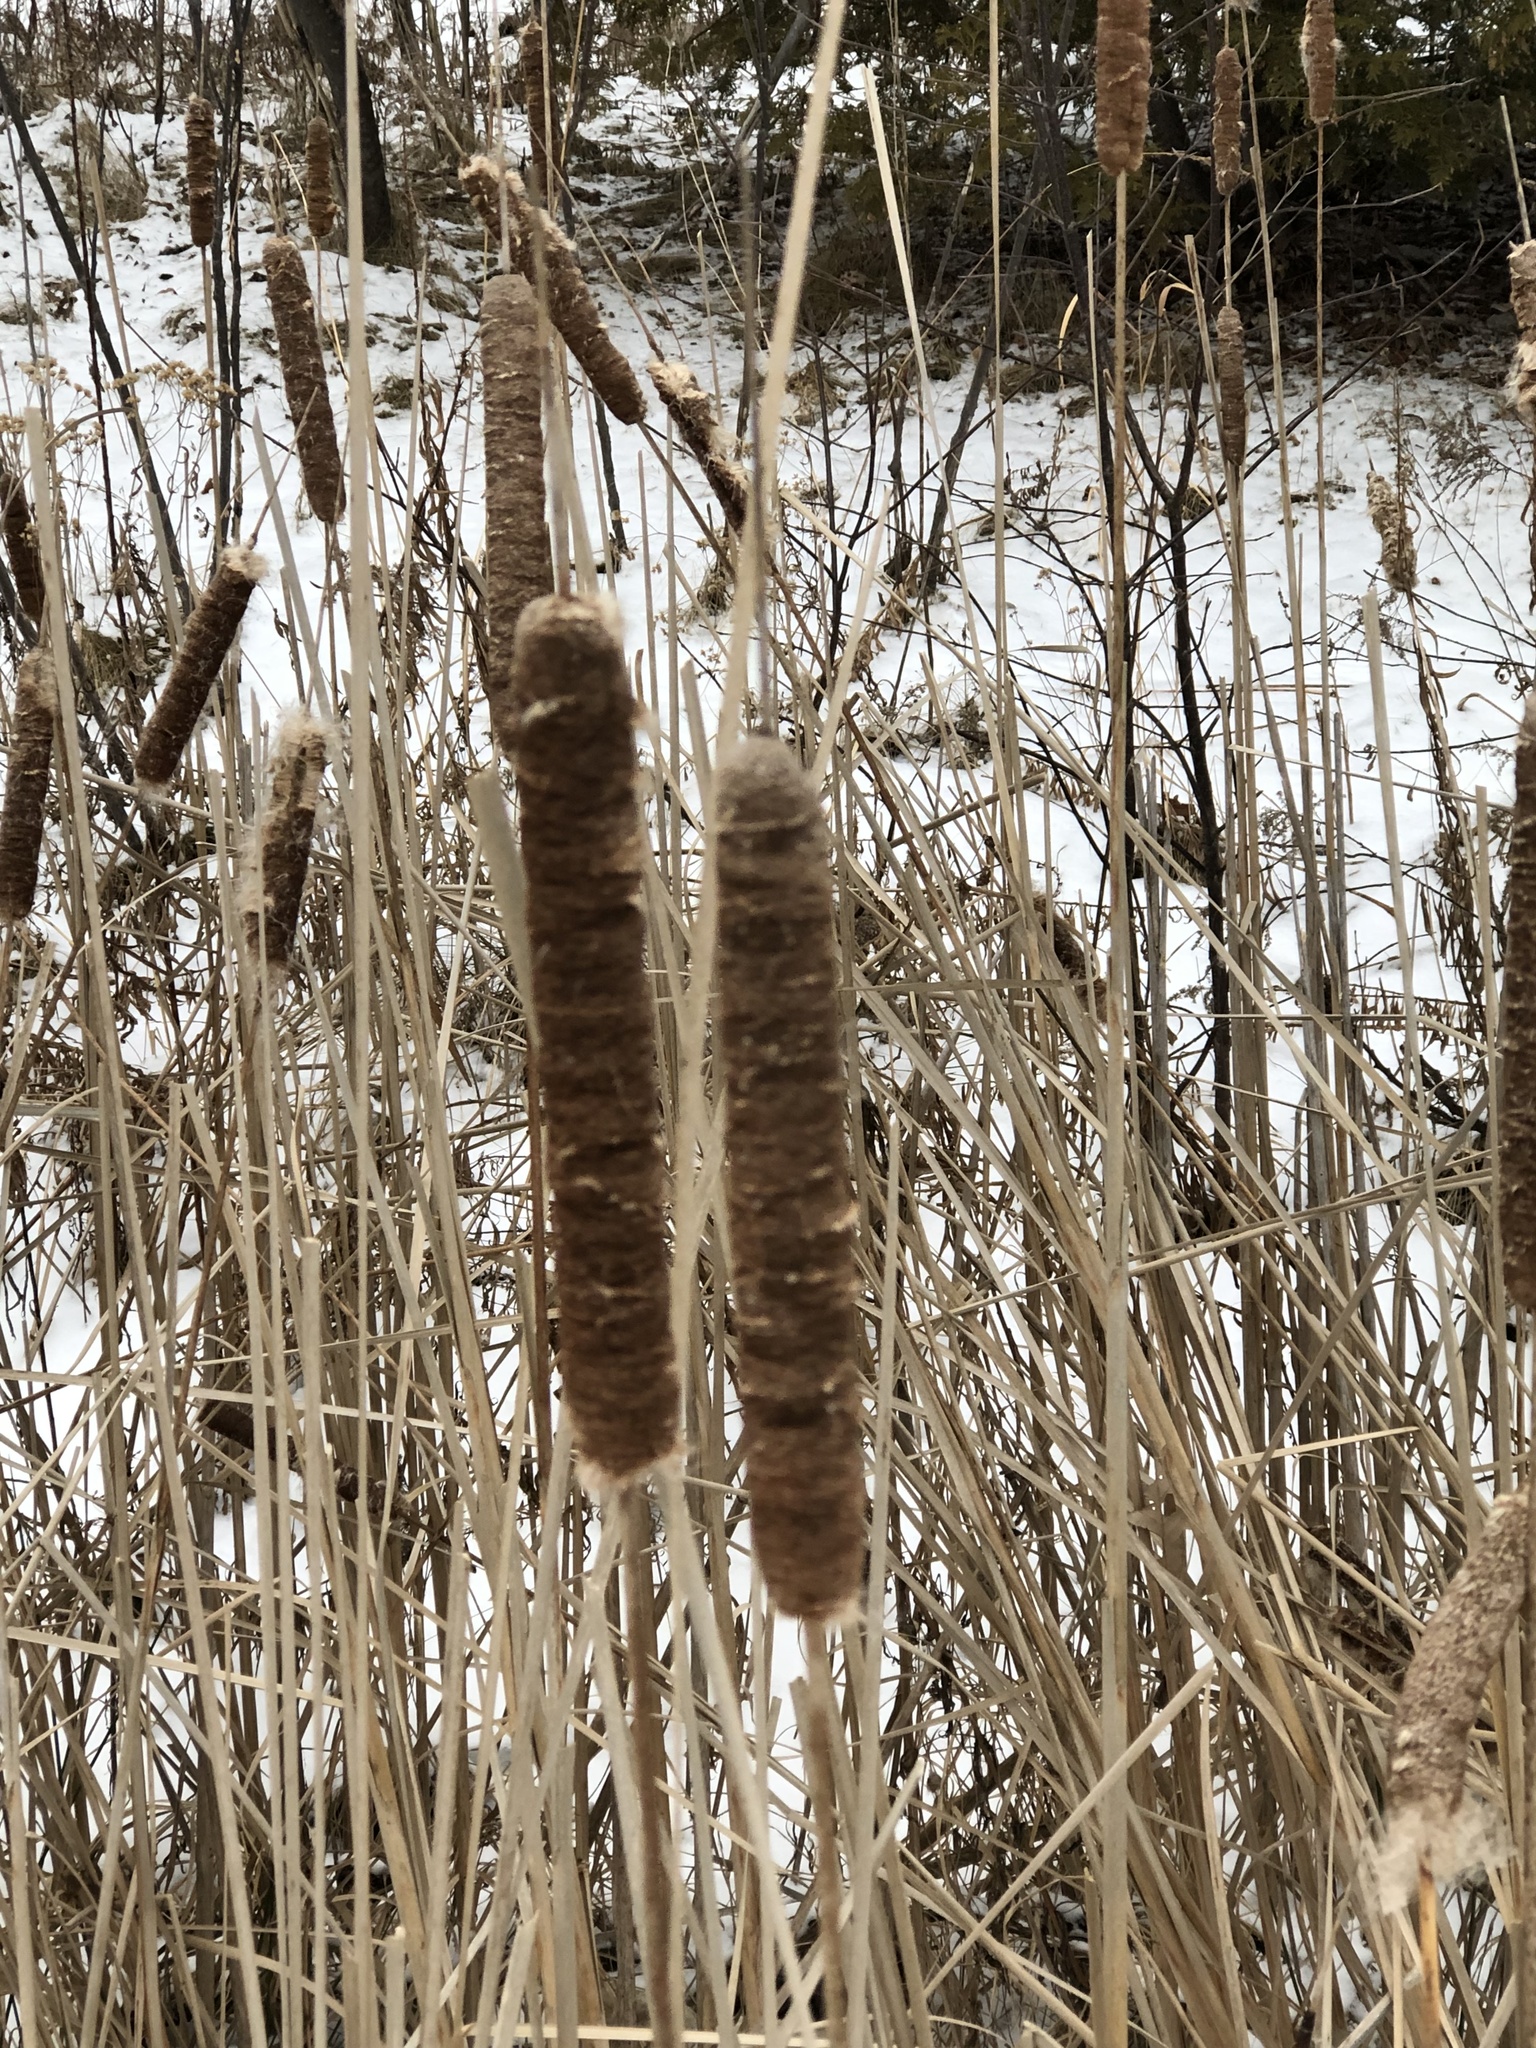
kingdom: Plantae
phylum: Tracheophyta
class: Liliopsida
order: Poales
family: Typhaceae
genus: Typha
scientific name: Typha latifolia
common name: Broadleaf cattail
